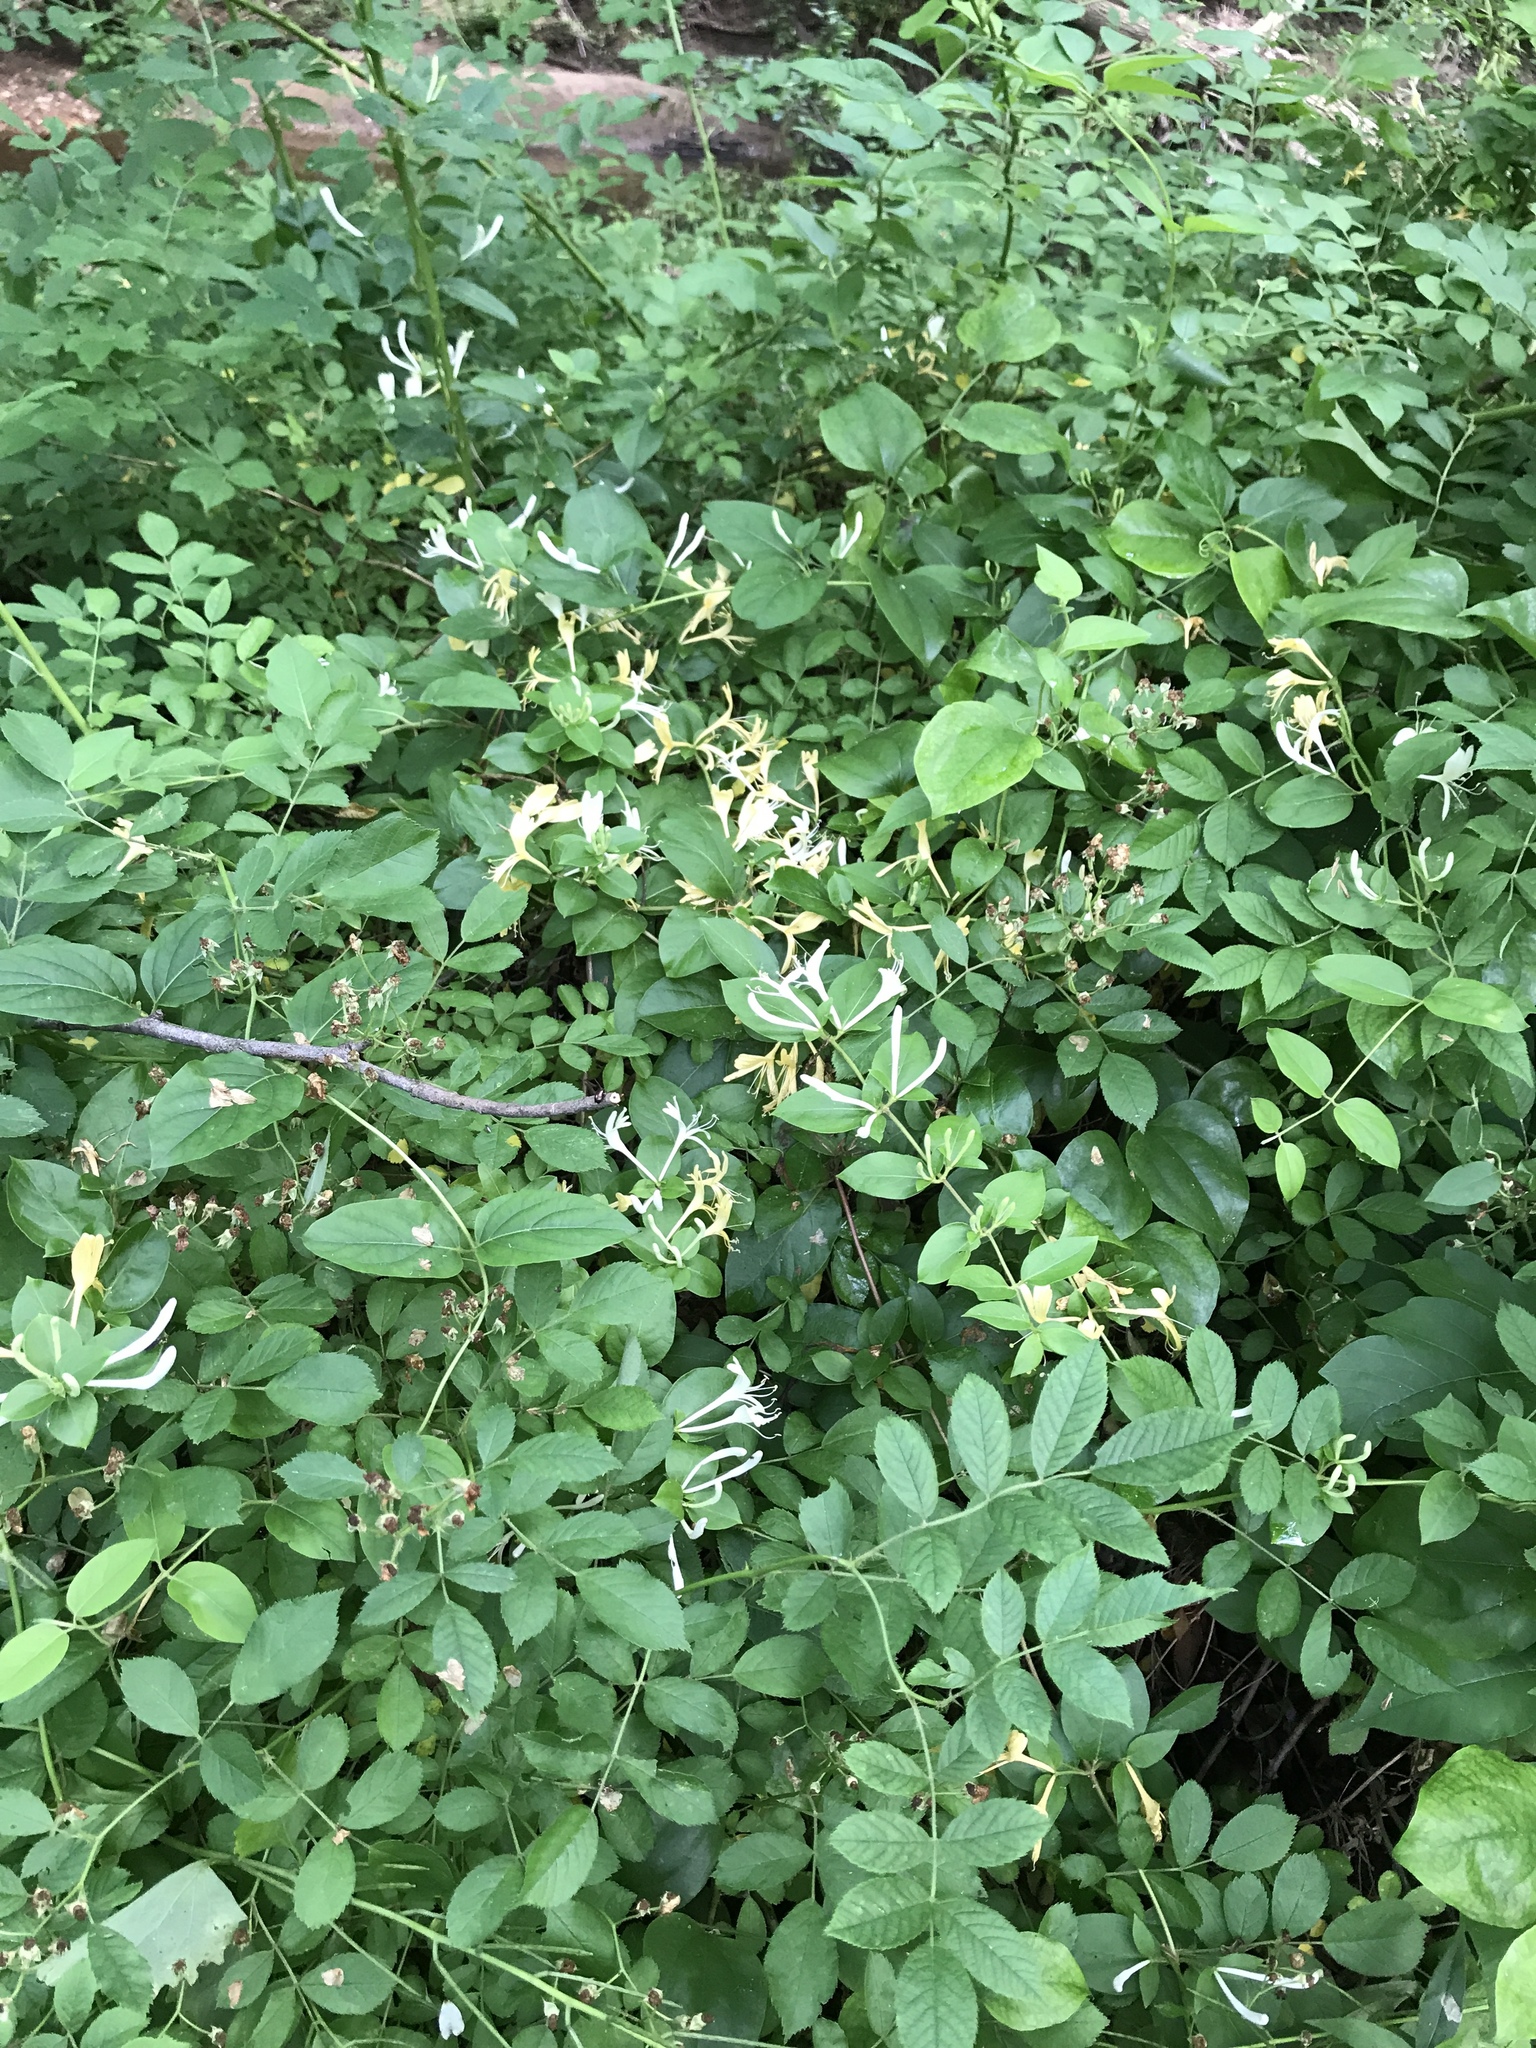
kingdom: Plantae
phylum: Tracheophyta
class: Magnoliopsida
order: Dipsacales
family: Caprifoliaceae
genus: Lonicera
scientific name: Lonicera japonica
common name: Japanese honeysuckle
